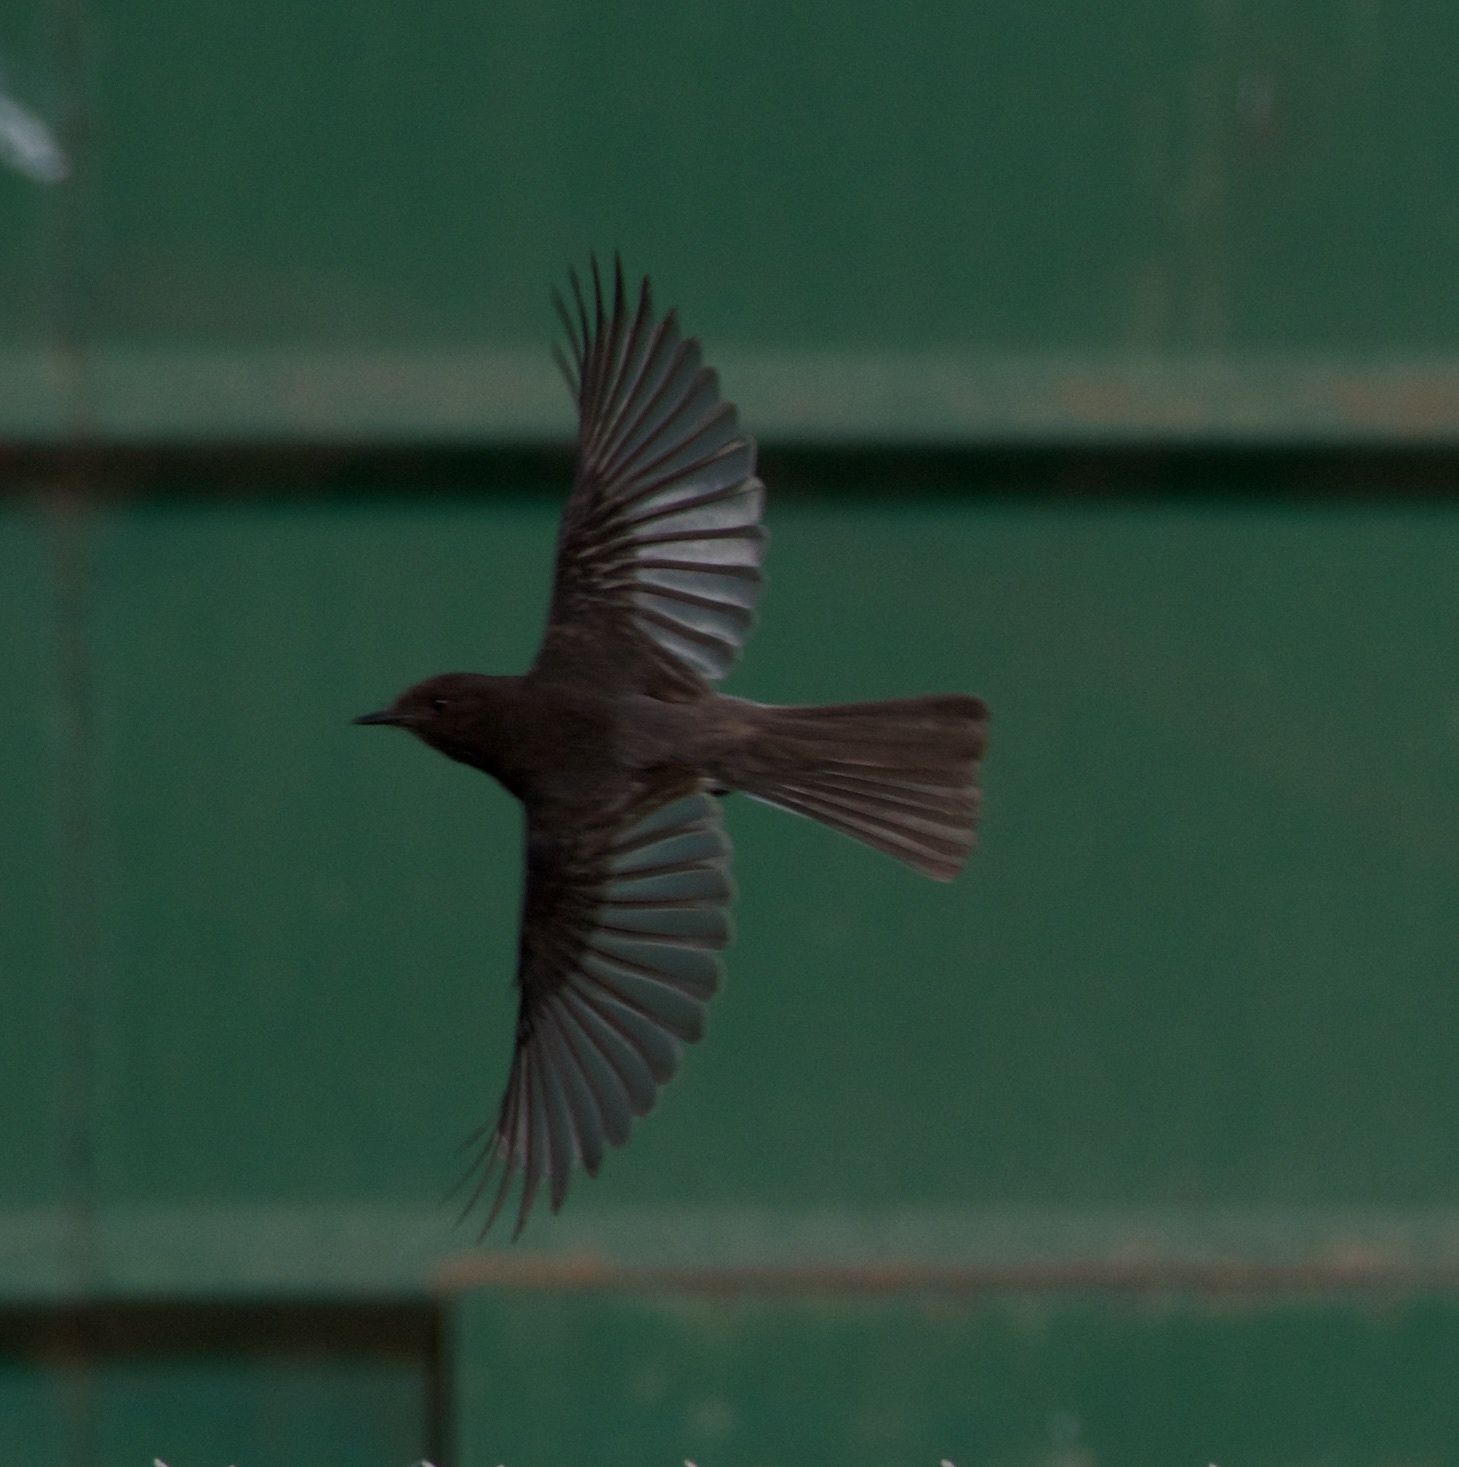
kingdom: Animalia
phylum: Chordata
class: Aves
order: Passeriformes
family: Tyrannidae
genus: Sayornis
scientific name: Sayornis nigricans
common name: Black phoebe
